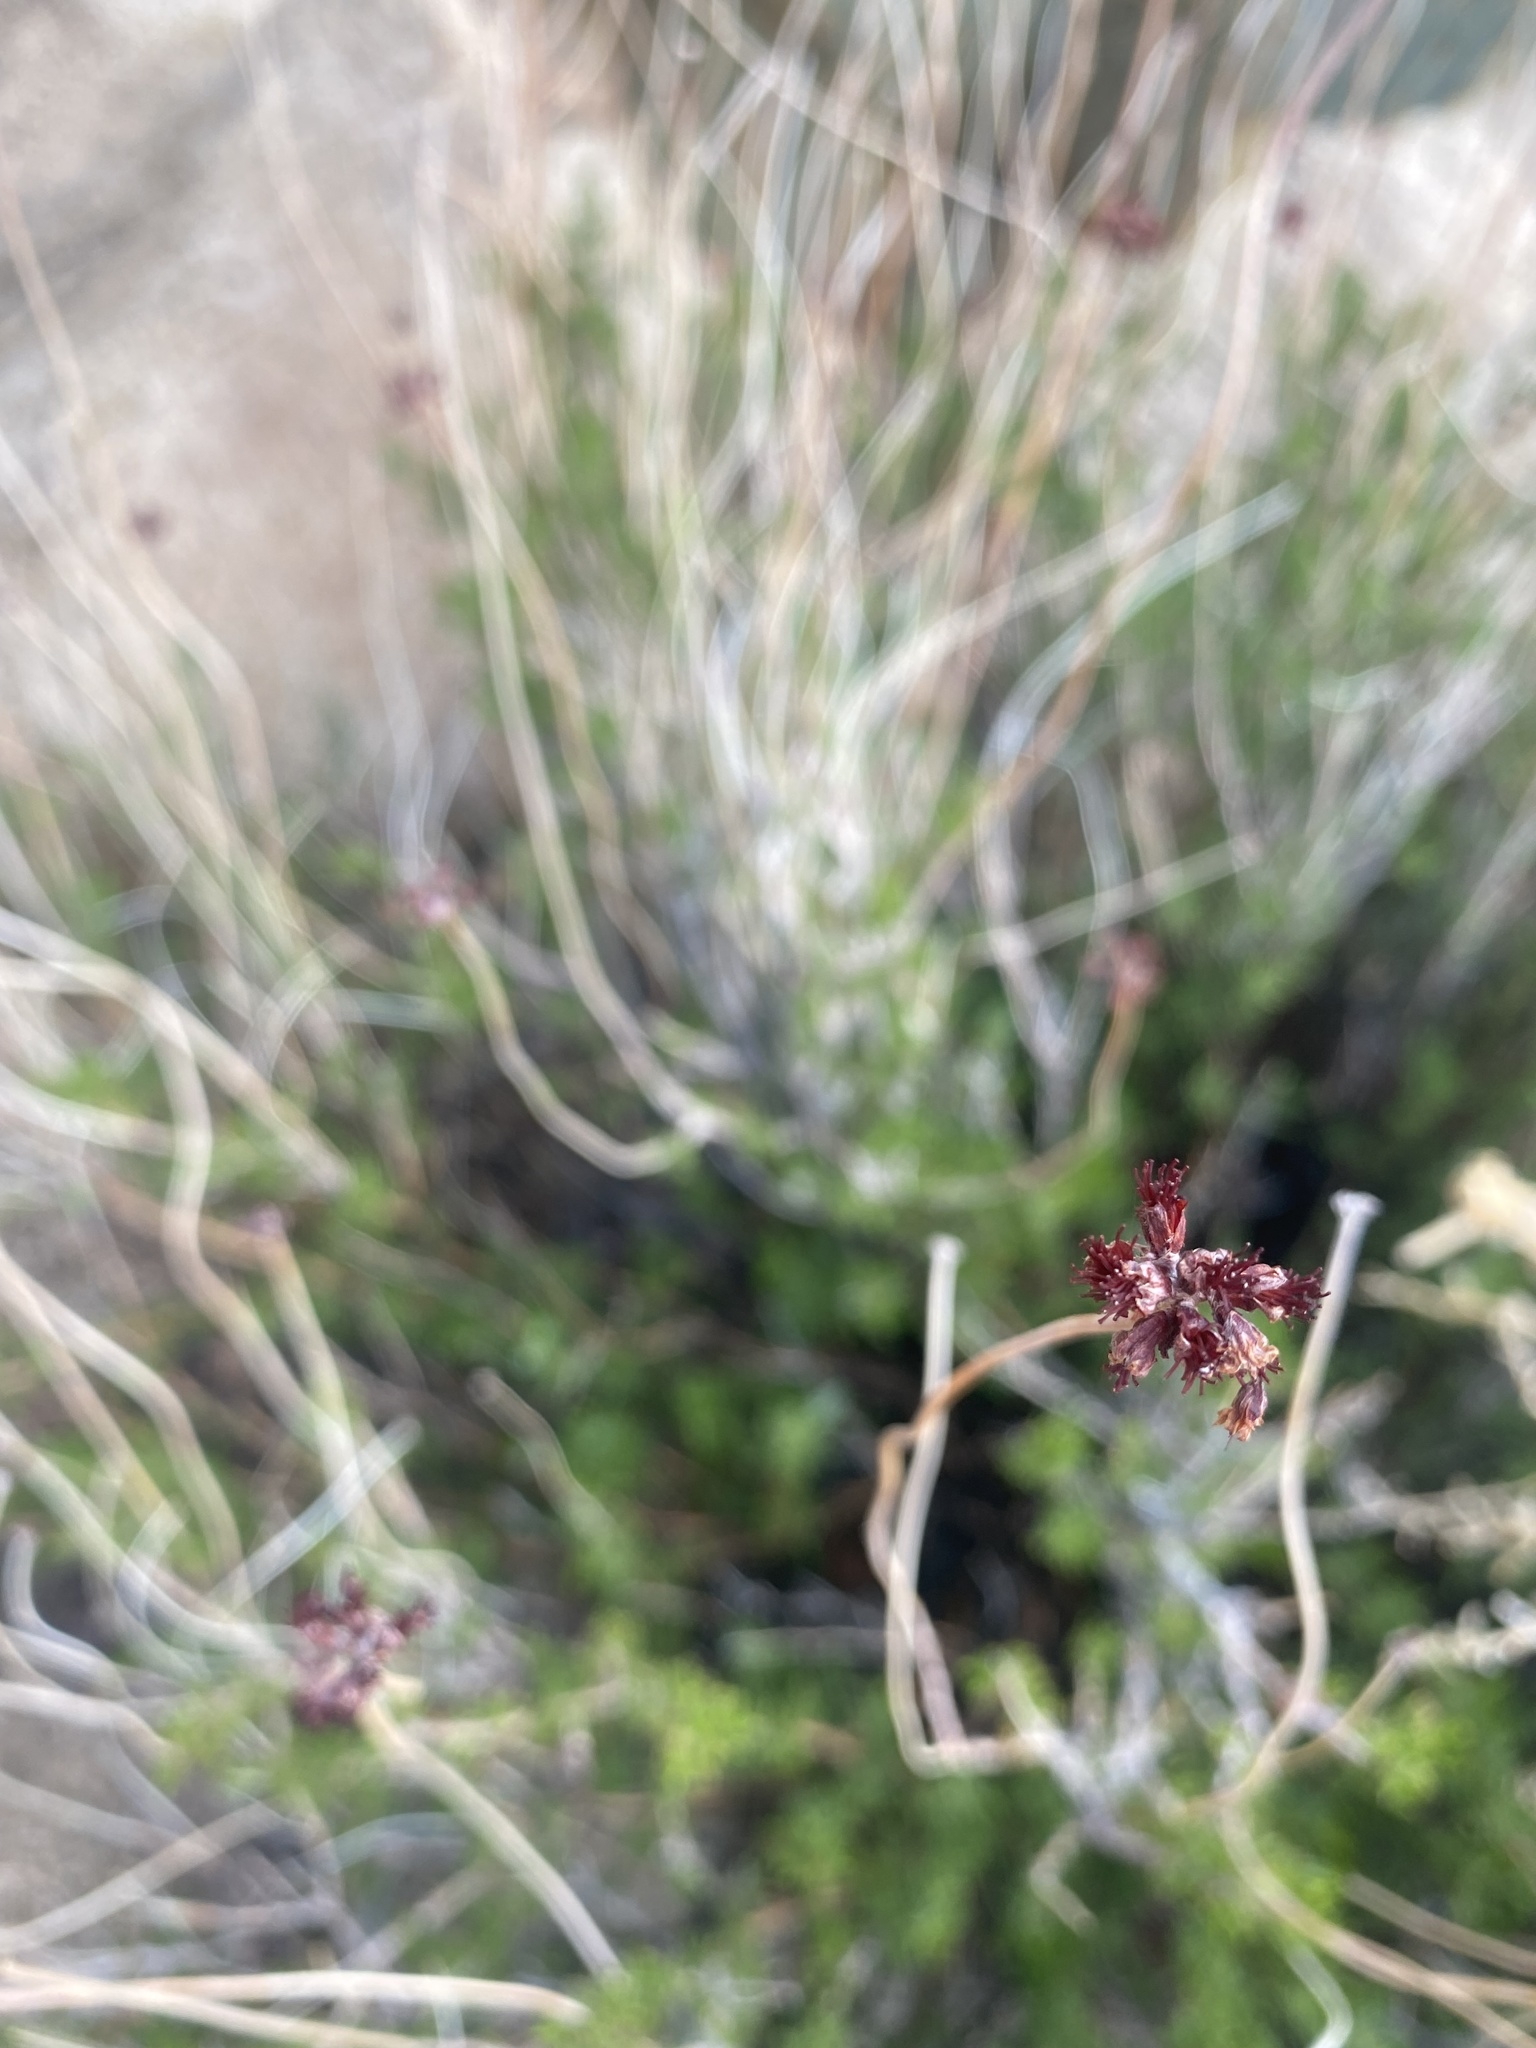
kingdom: Plantae
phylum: Tracheophyta
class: Magnoliopsida
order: Caryophyllales
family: Polygonaceae
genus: Eriogonum
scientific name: Eriogonum fasciculatum
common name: California wild buckwheat
